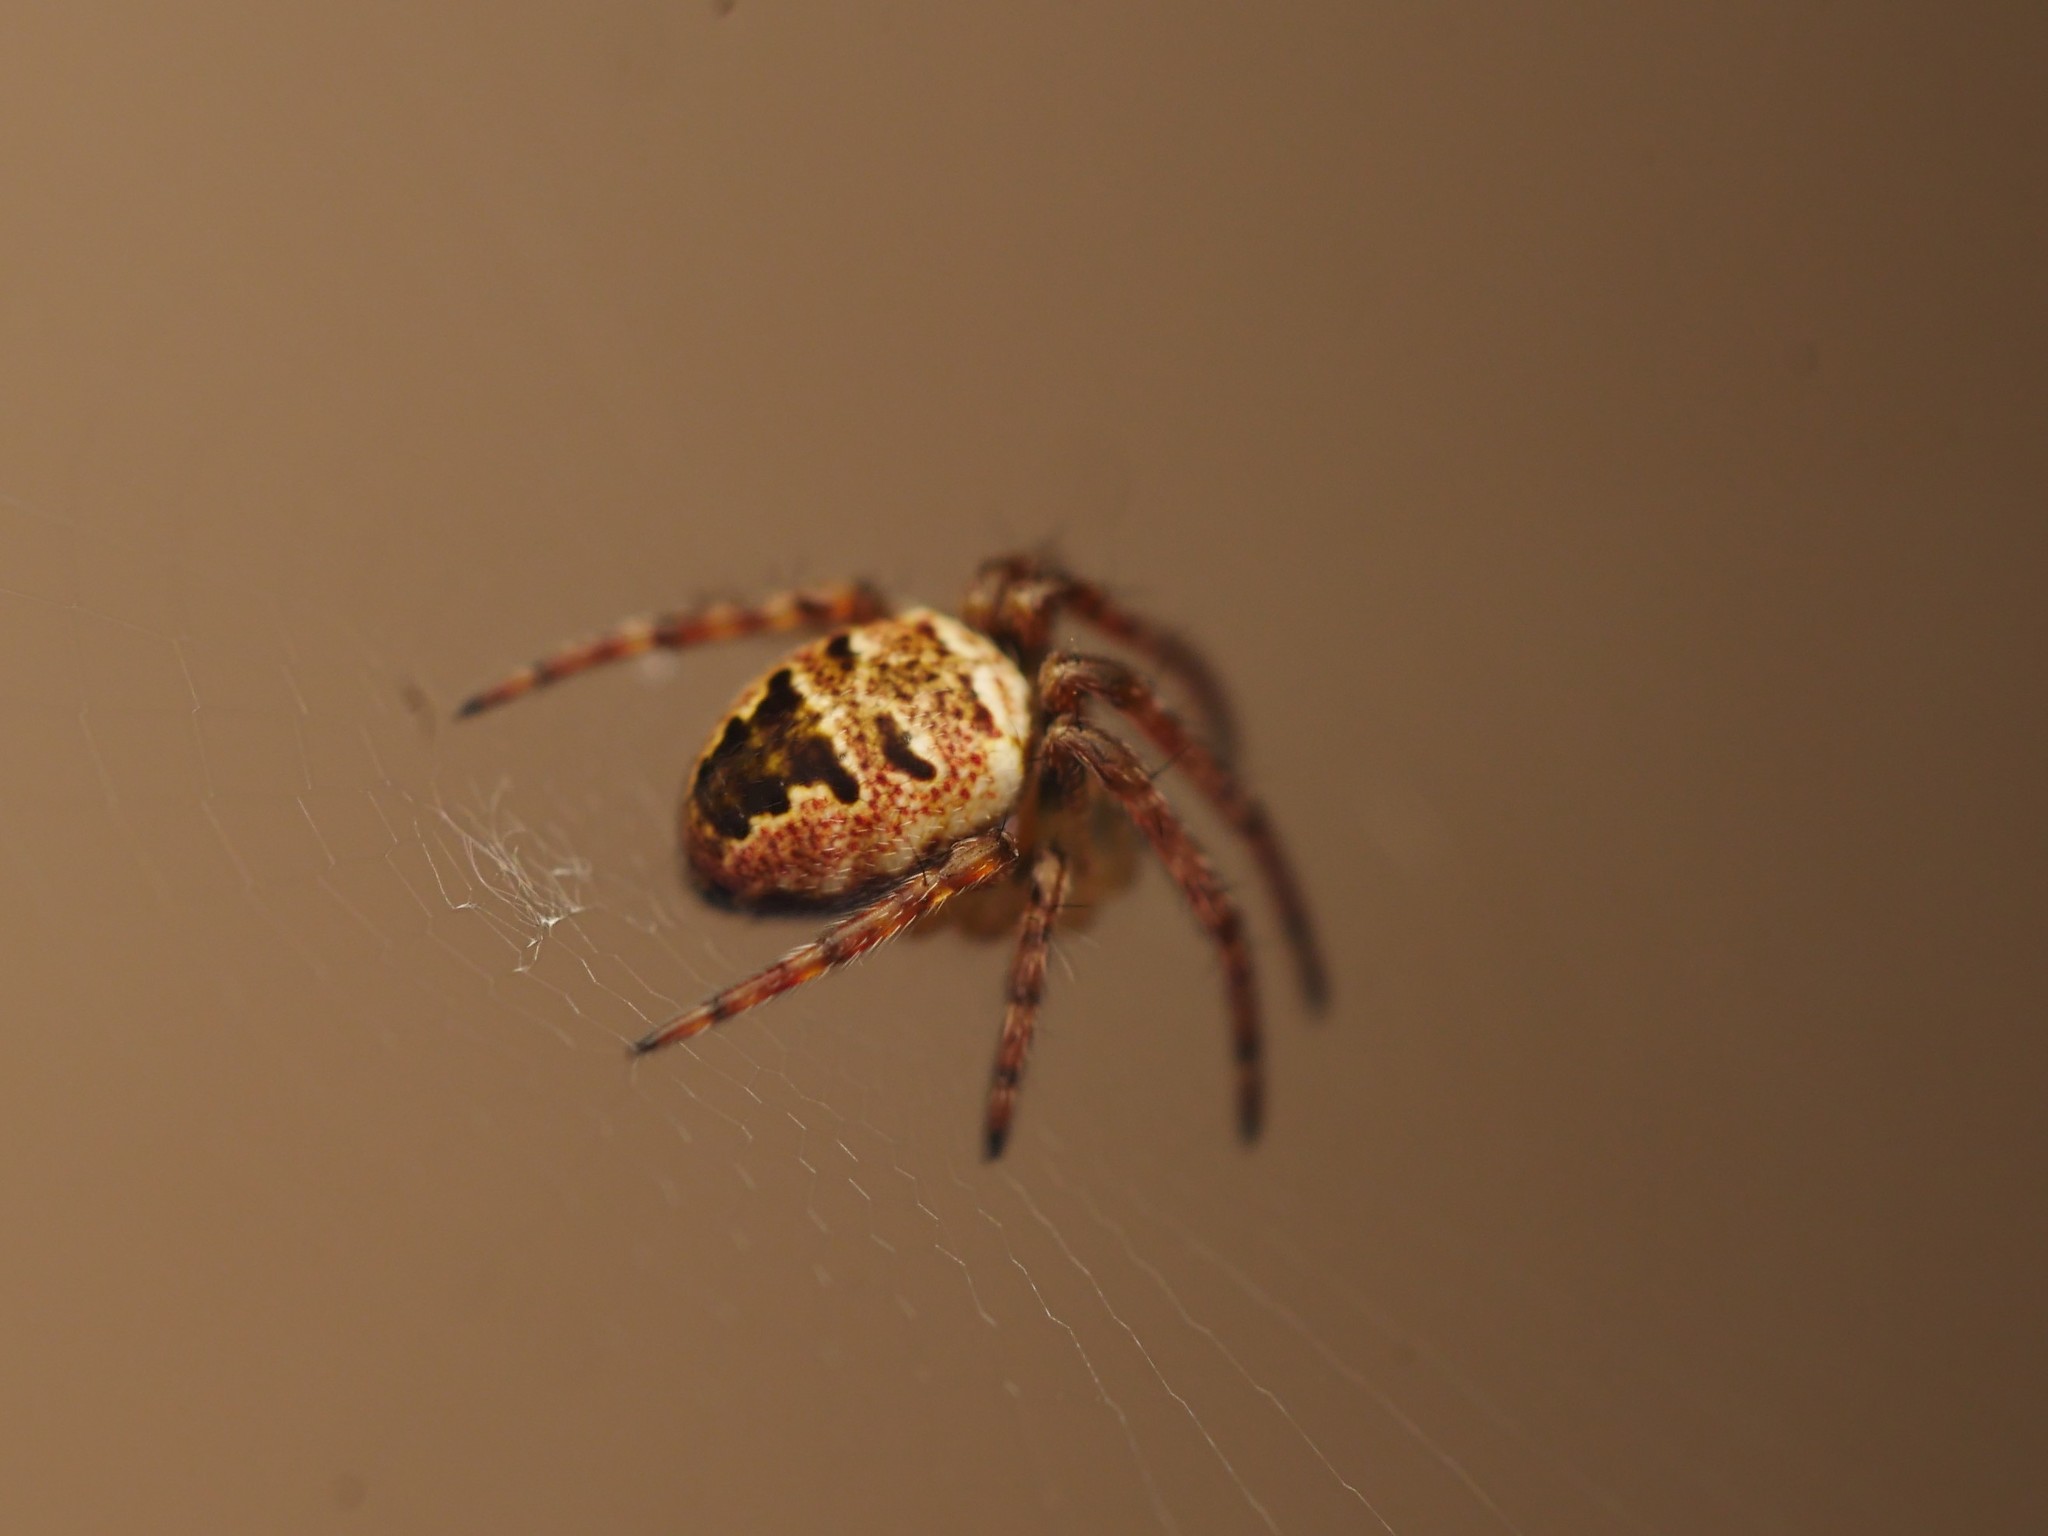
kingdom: Animalia
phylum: Arthropoda
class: Arachnida
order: Araneae
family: Araneidae
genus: Zilla
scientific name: Zilla diodia
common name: Zilla diodia
